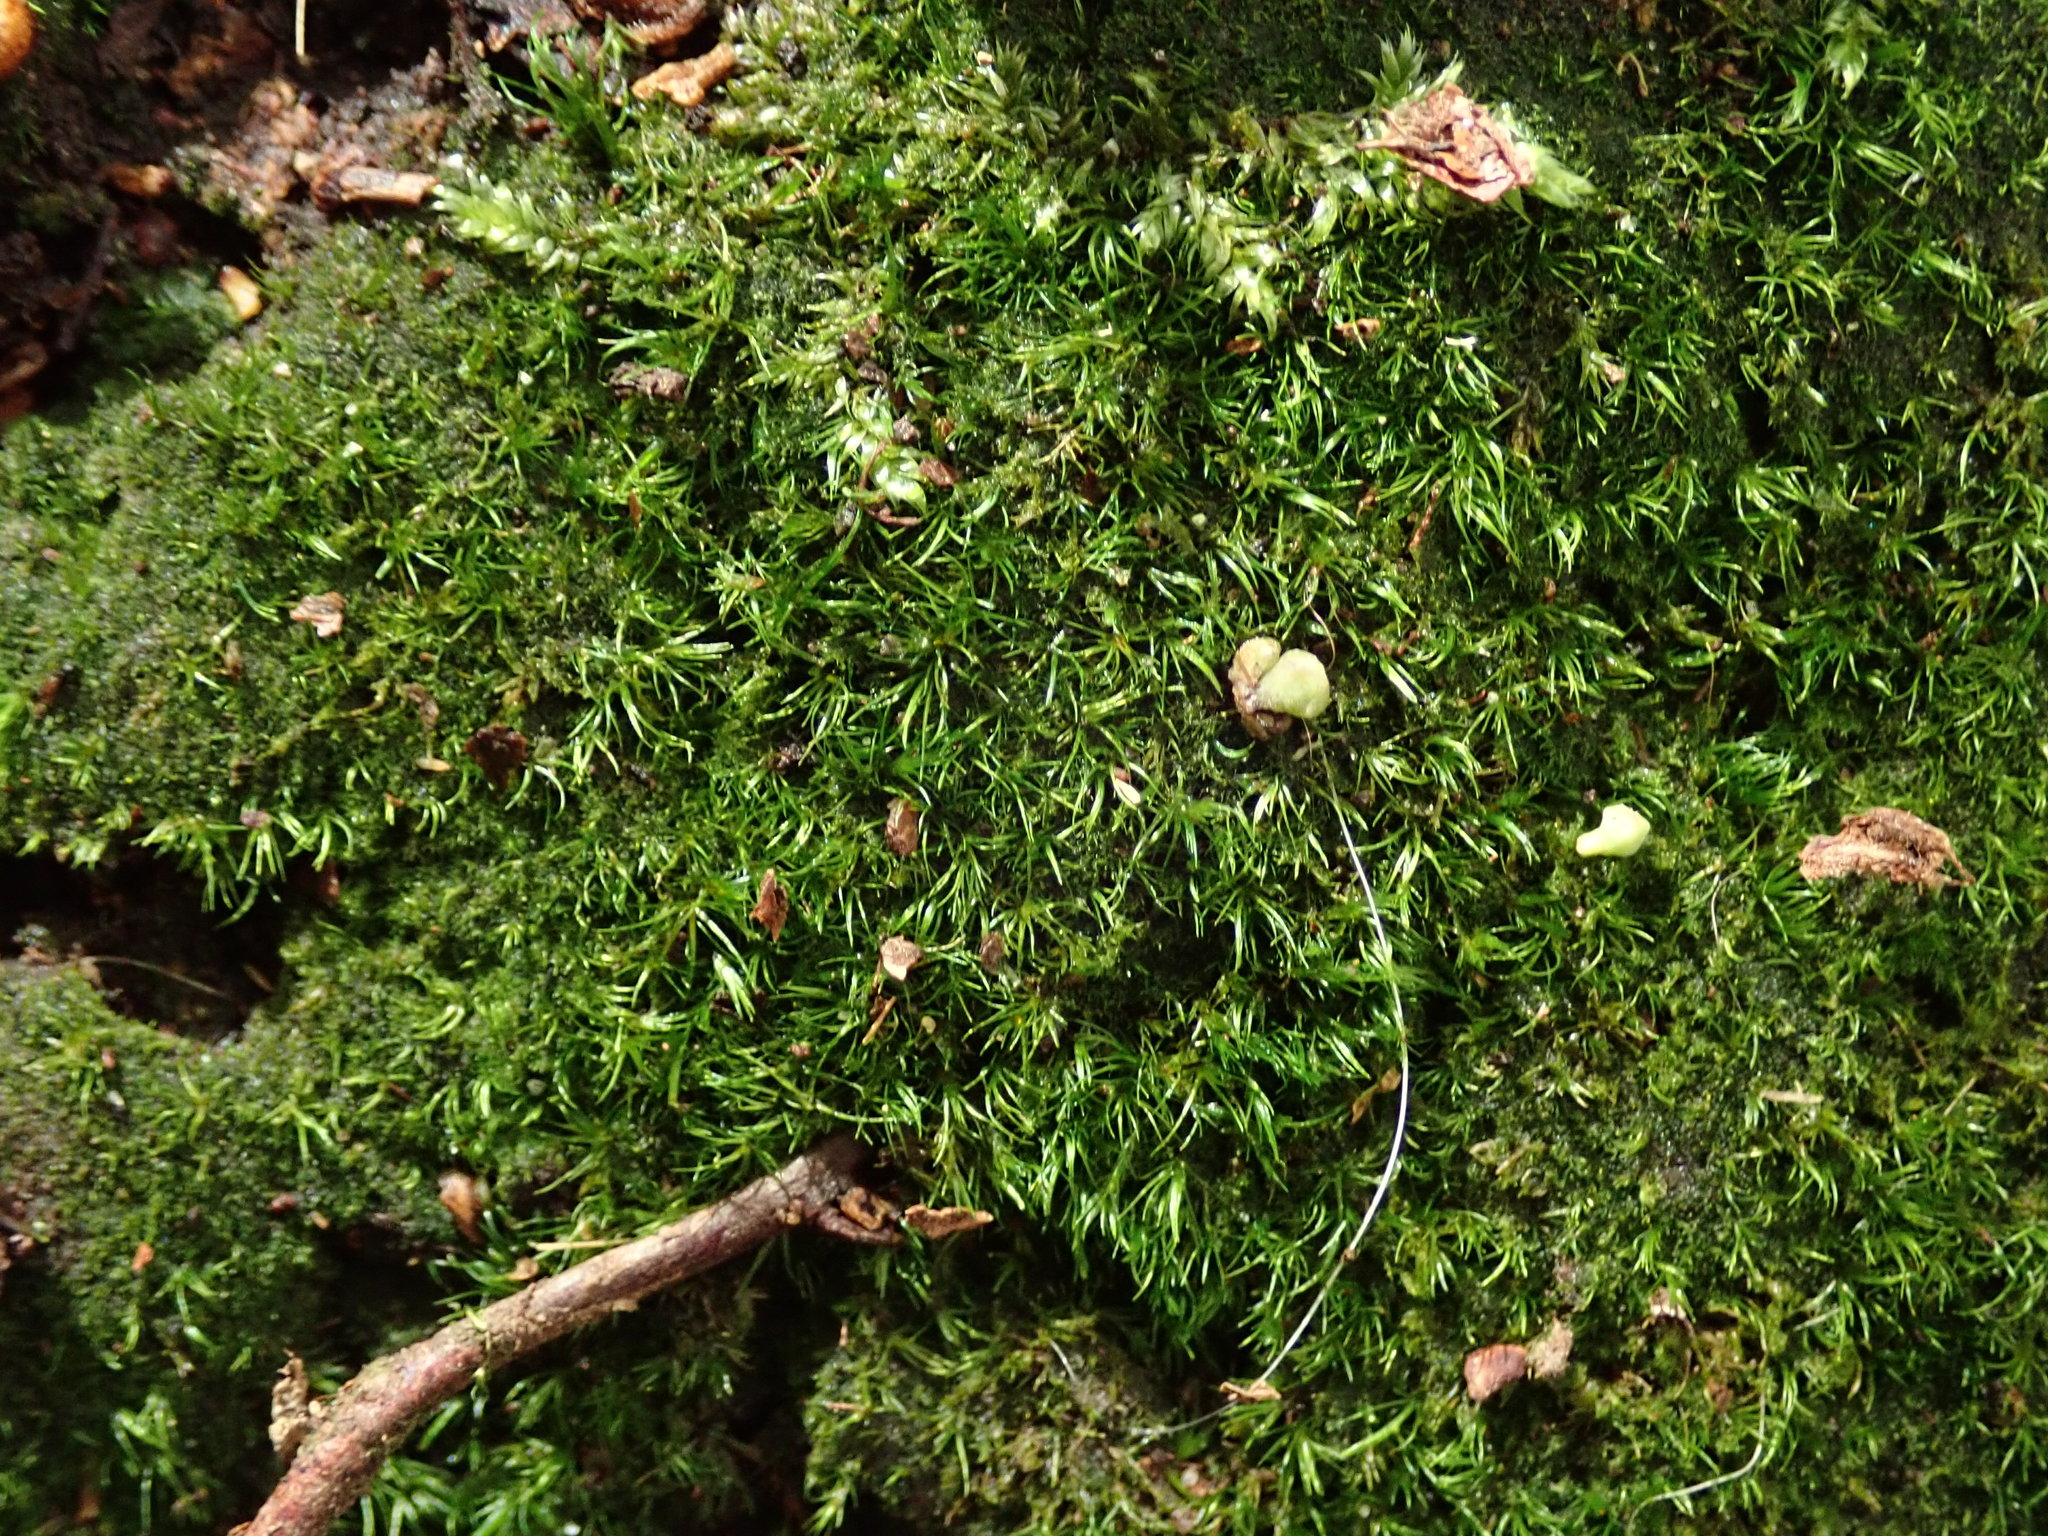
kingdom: Plantae
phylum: Bryophyta
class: Bryopsida
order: Dicranales
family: Dicranellaceae
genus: Dicranella
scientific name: Dicranella heteromalla
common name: Silky forklet moss
